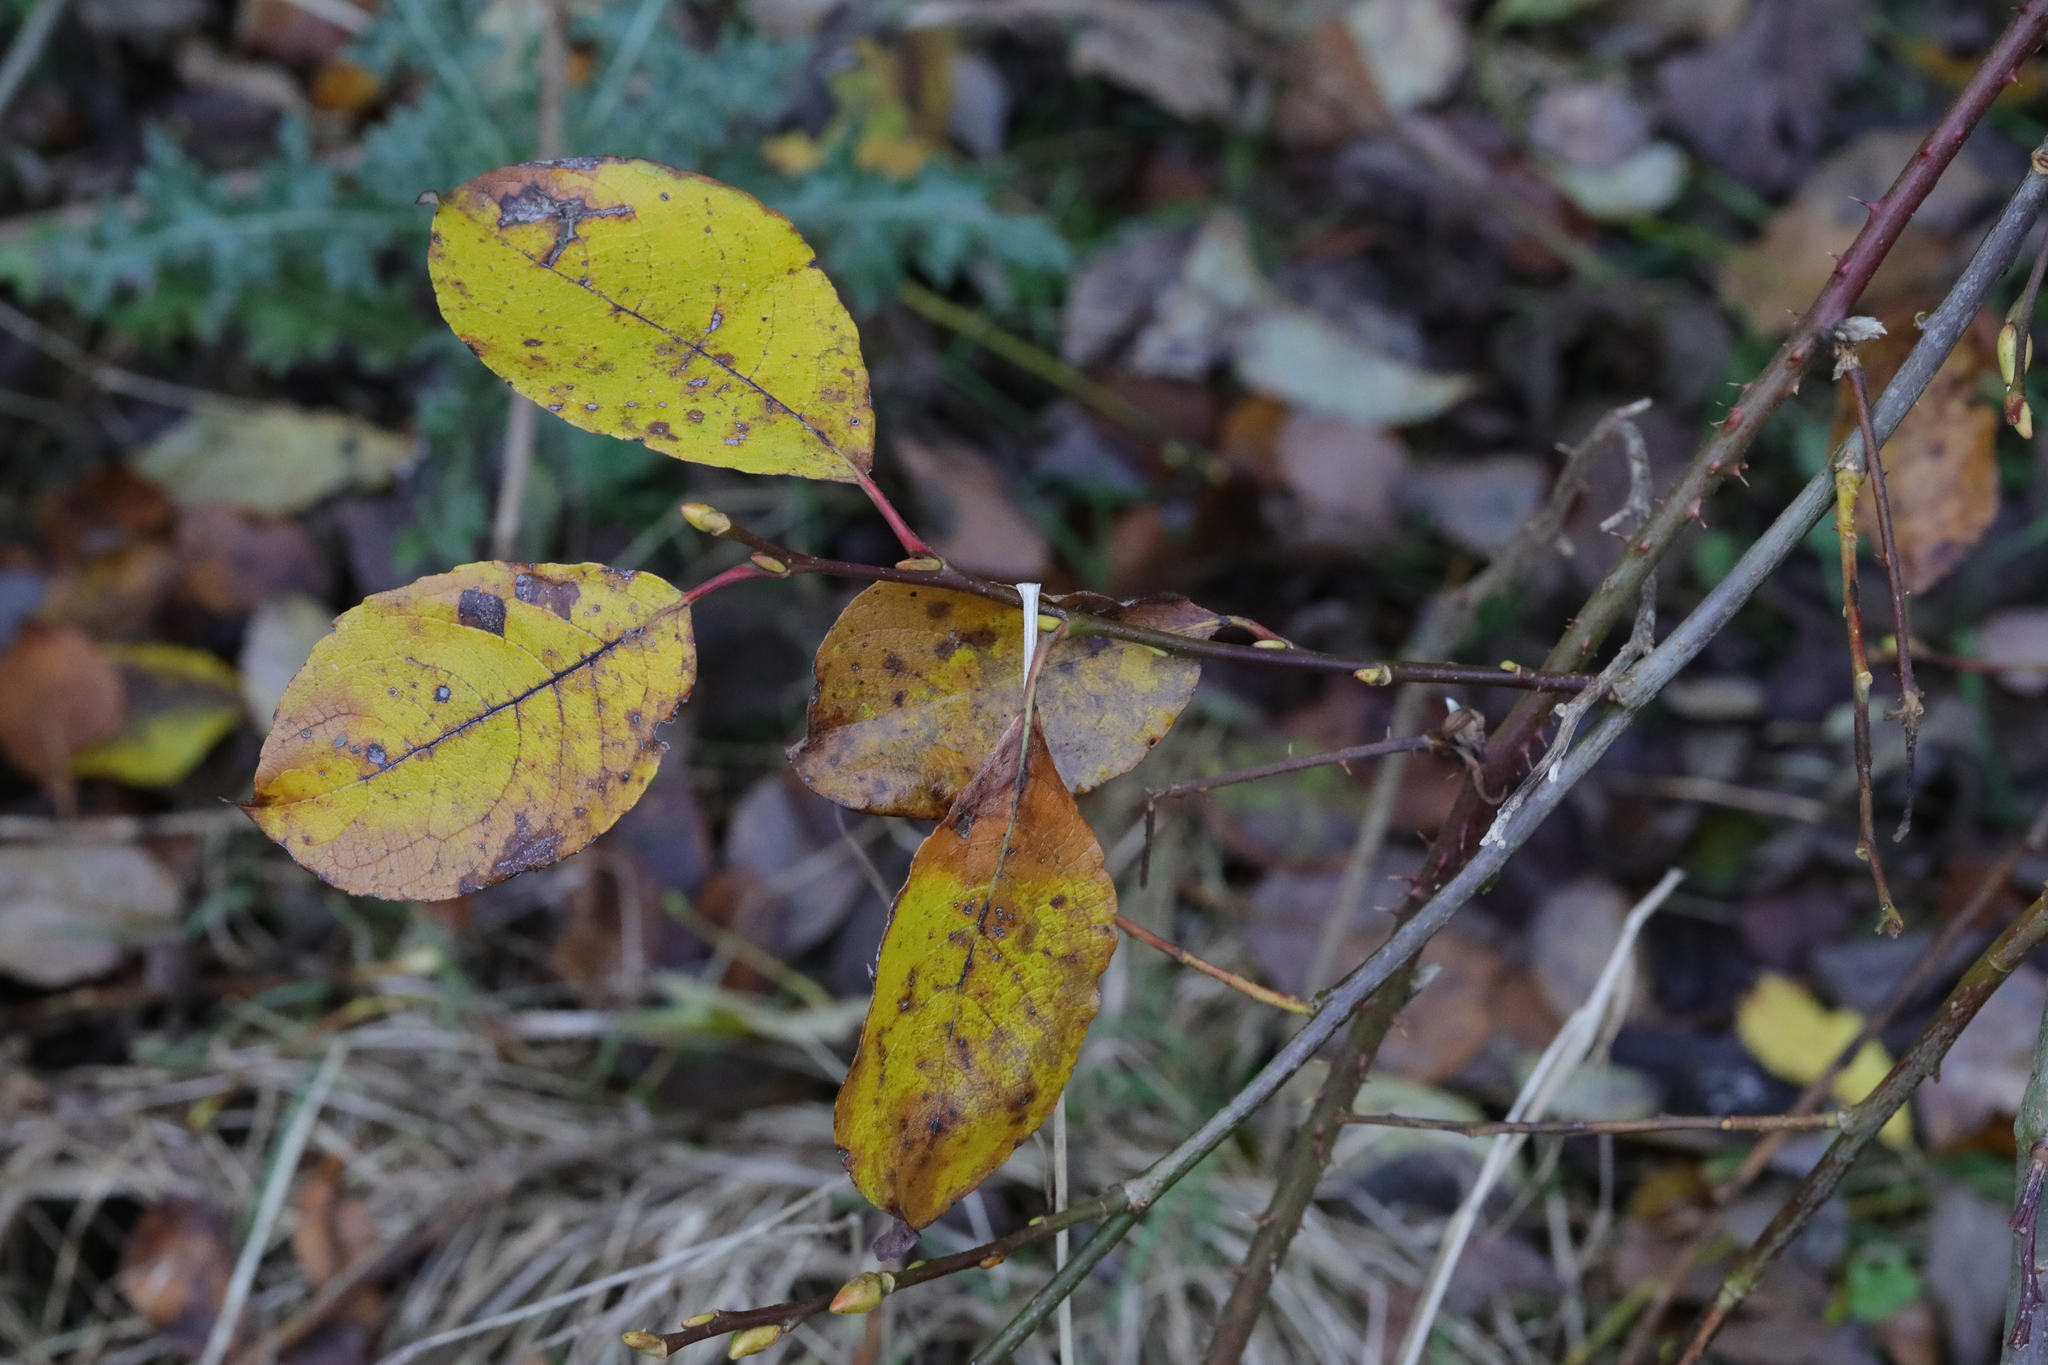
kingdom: Plantae
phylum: Tracheophyta
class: Magnoliopsida
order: Malpighiales
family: Salicaceae
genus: Salix
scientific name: Salix caprea
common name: Goat willow
